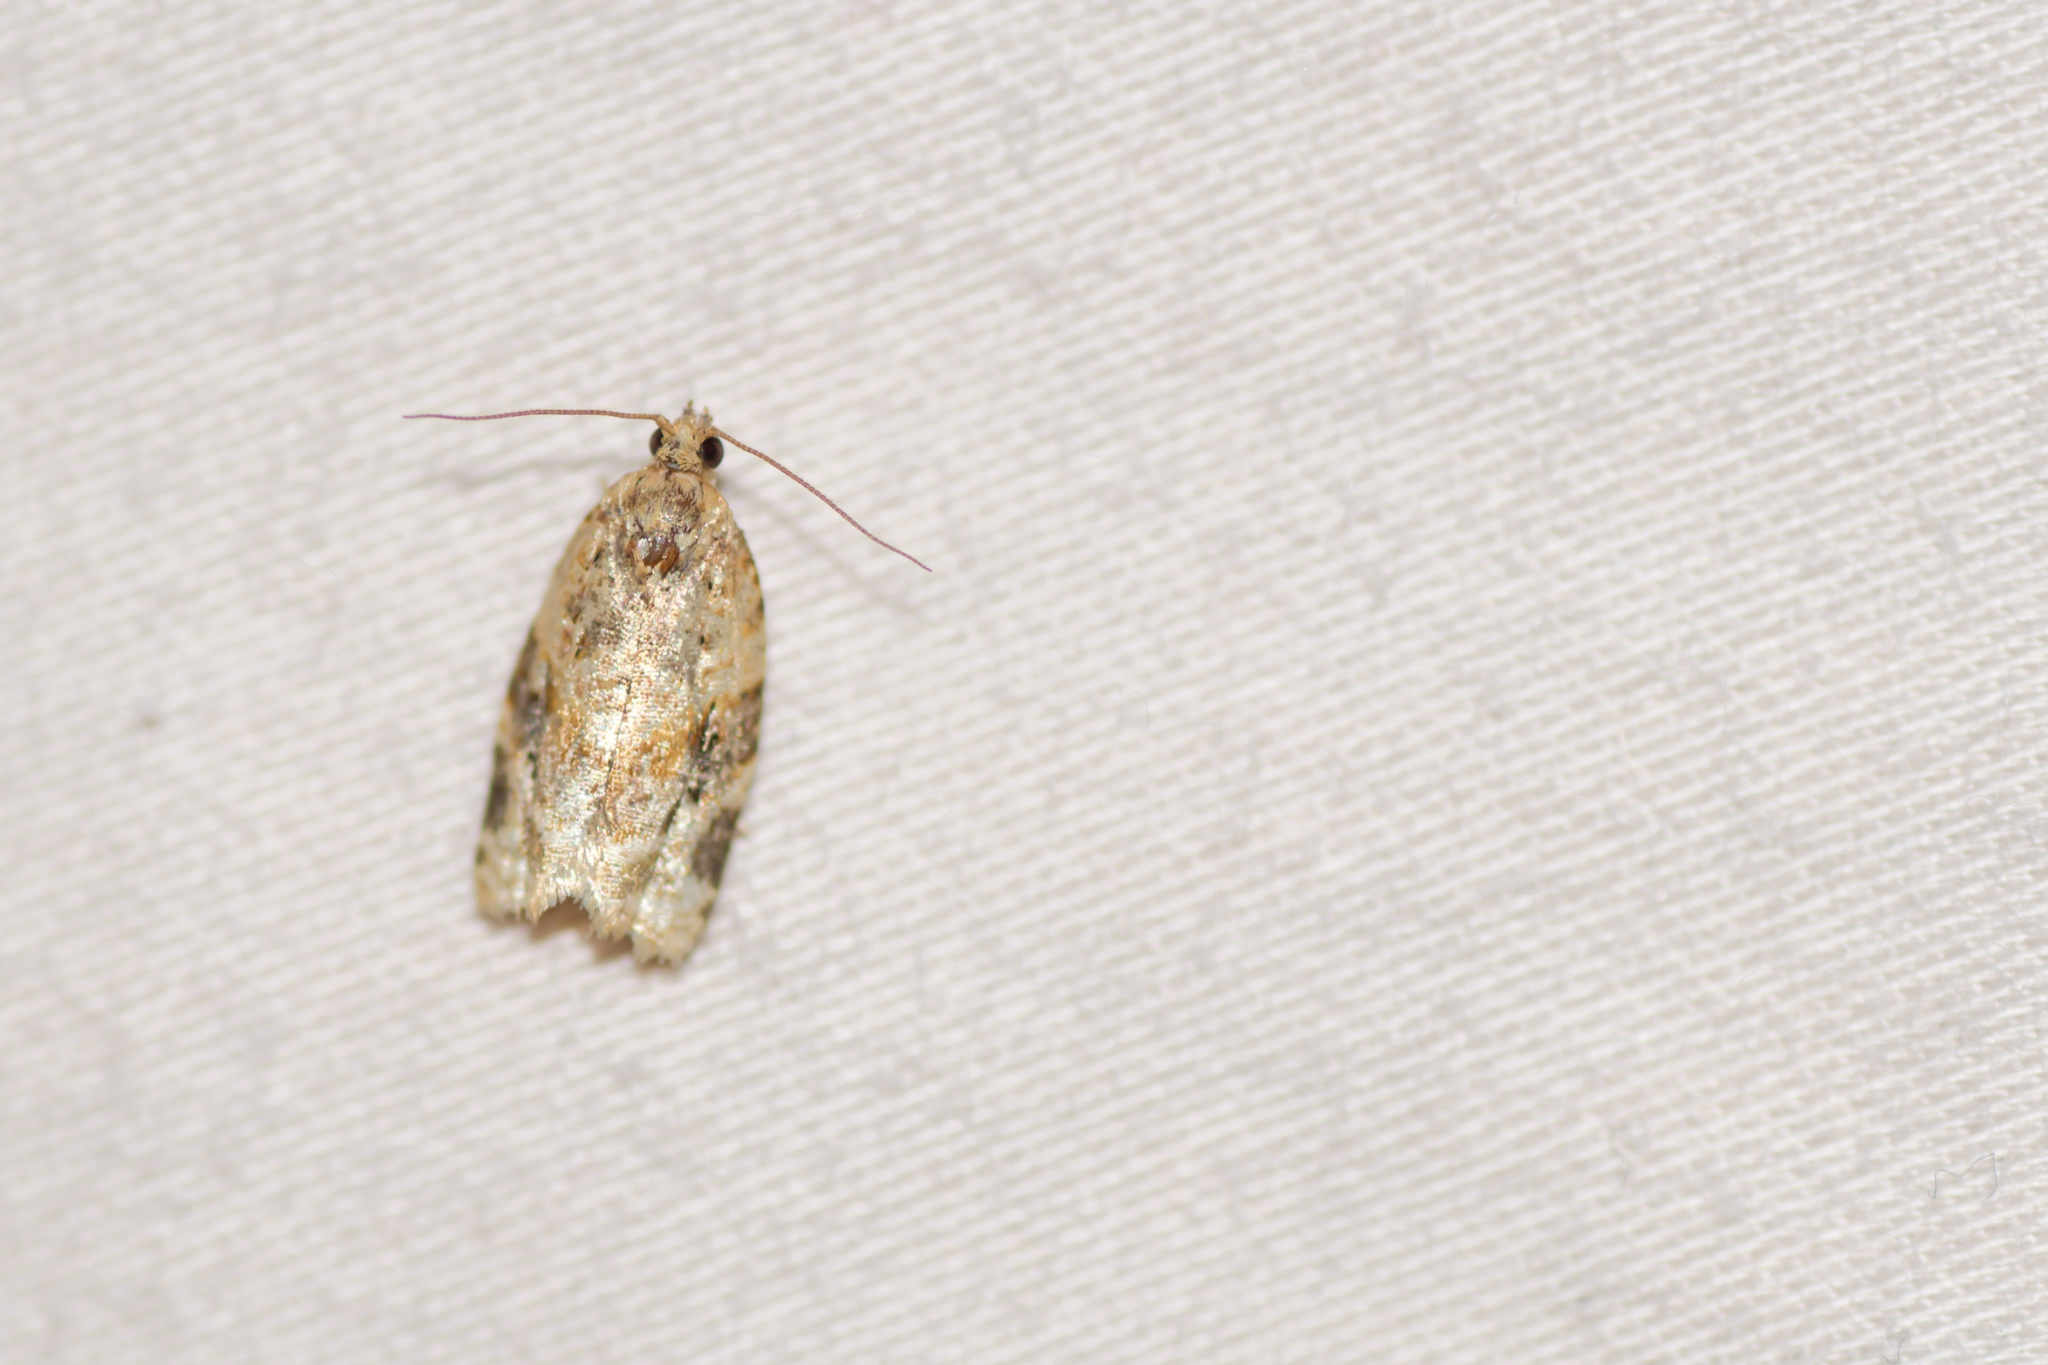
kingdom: Animalia
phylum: Arthropoda
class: Insecta
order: Lepidoptera
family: Tortricidae
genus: Clepsis
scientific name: Clepsis peritana
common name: Garden tortrix
